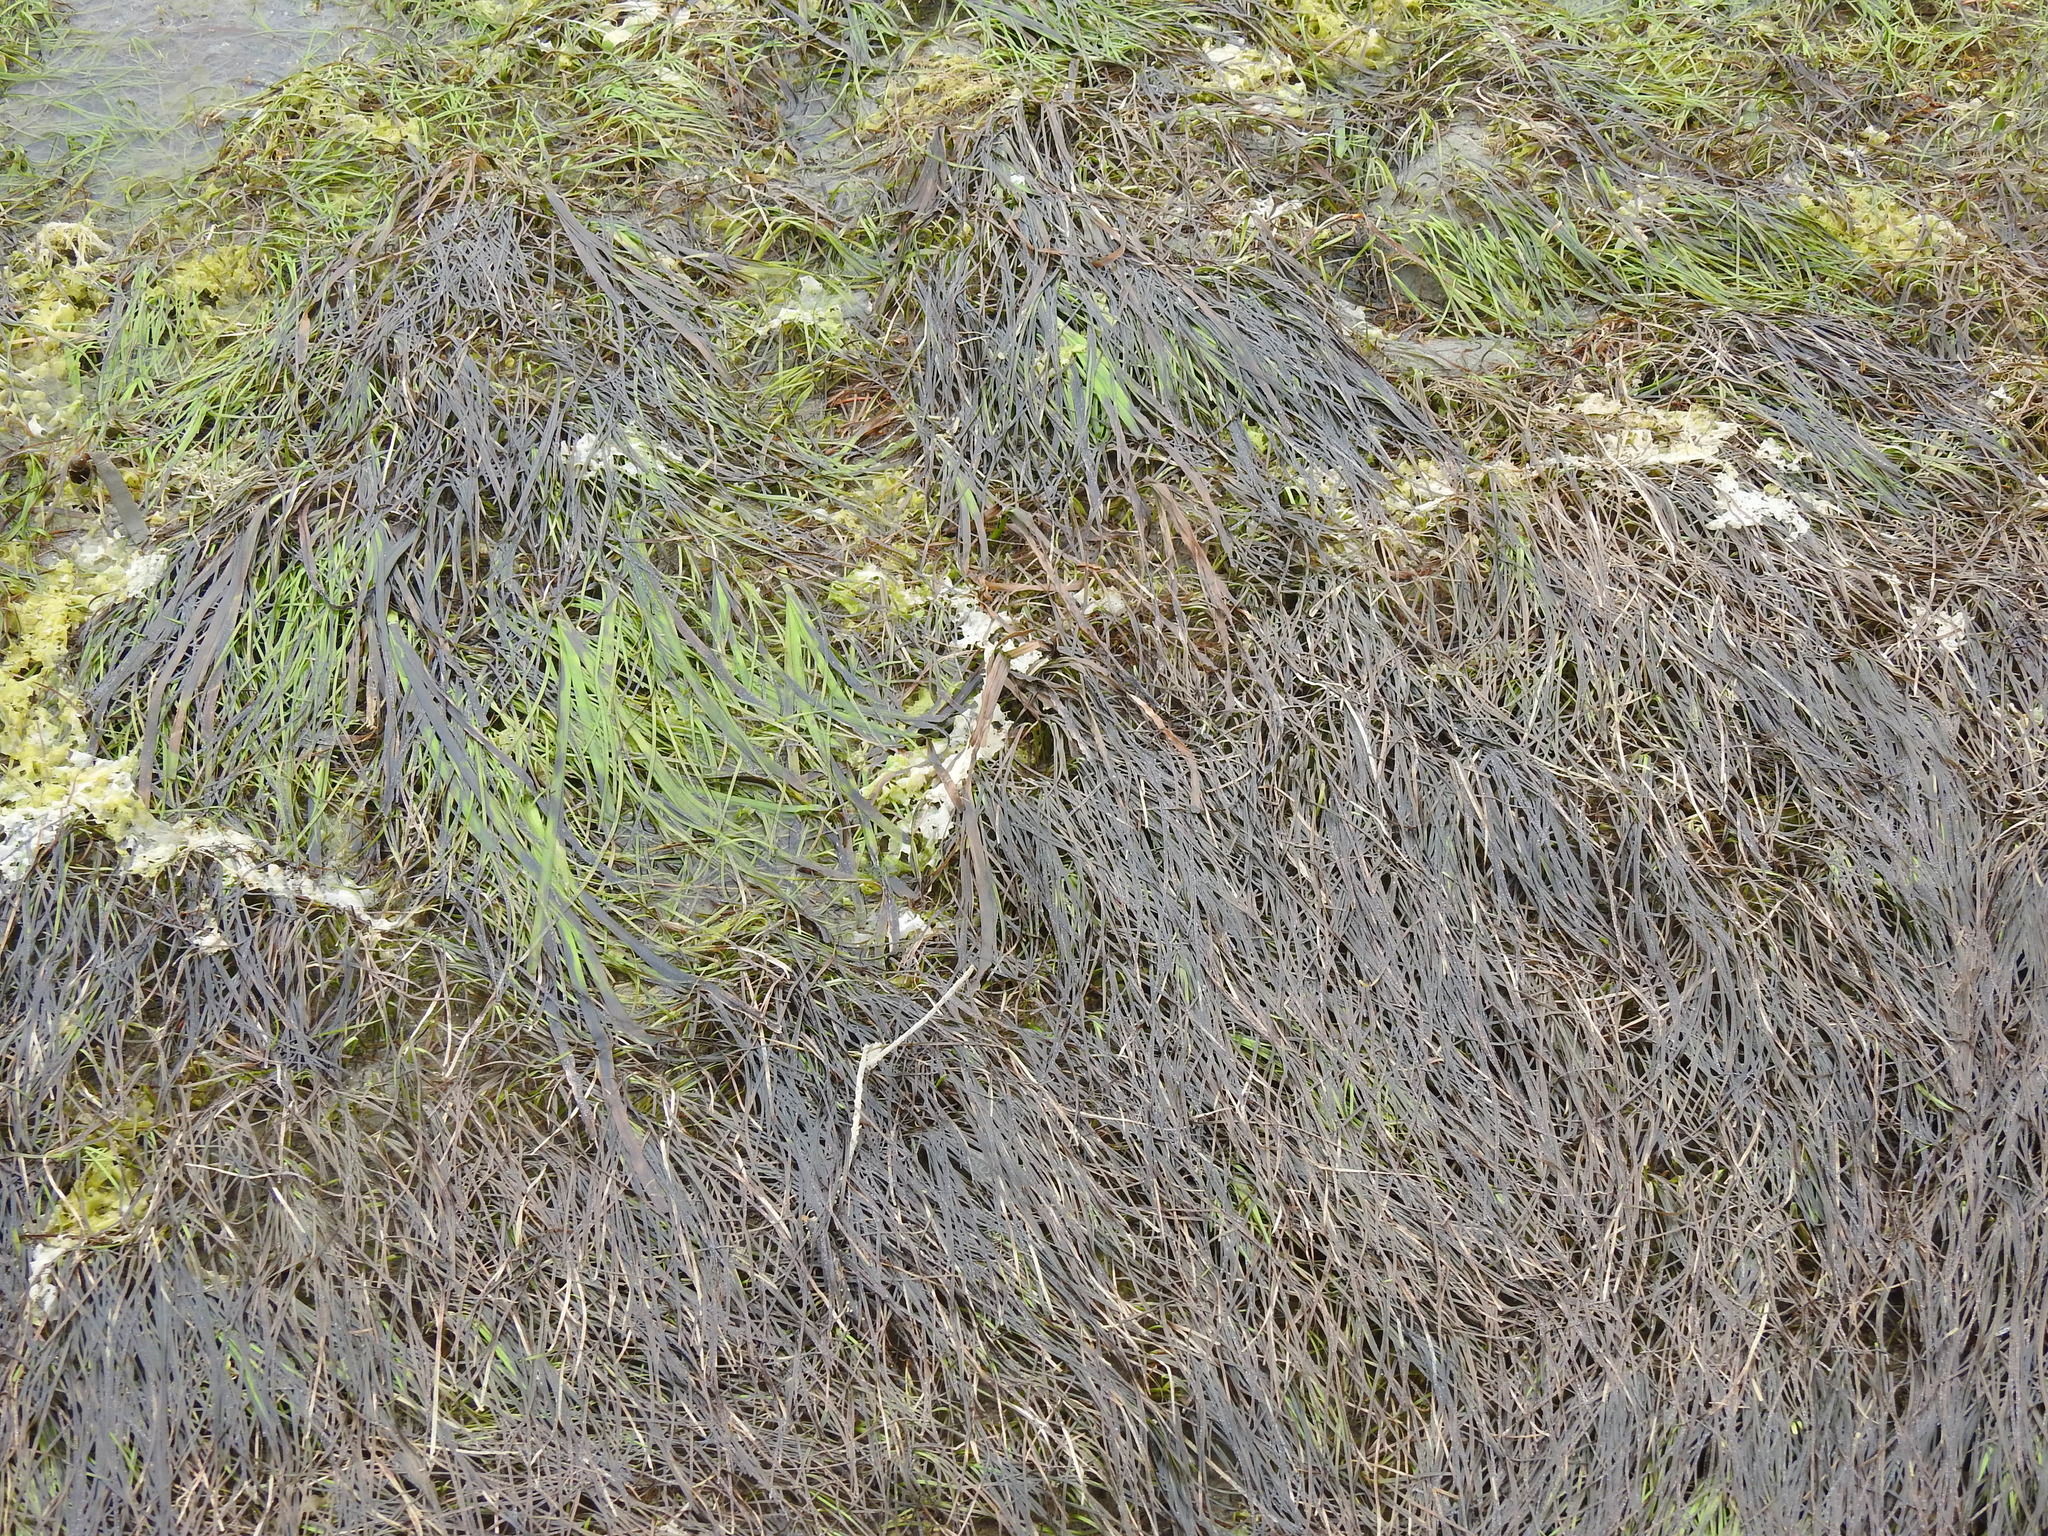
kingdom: Plantae
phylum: Tracheophyta
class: Liliopsida
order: Alismatales
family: Zosteraceae
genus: Zostera
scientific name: Zostera noltii
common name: Dwarf eelgrass
